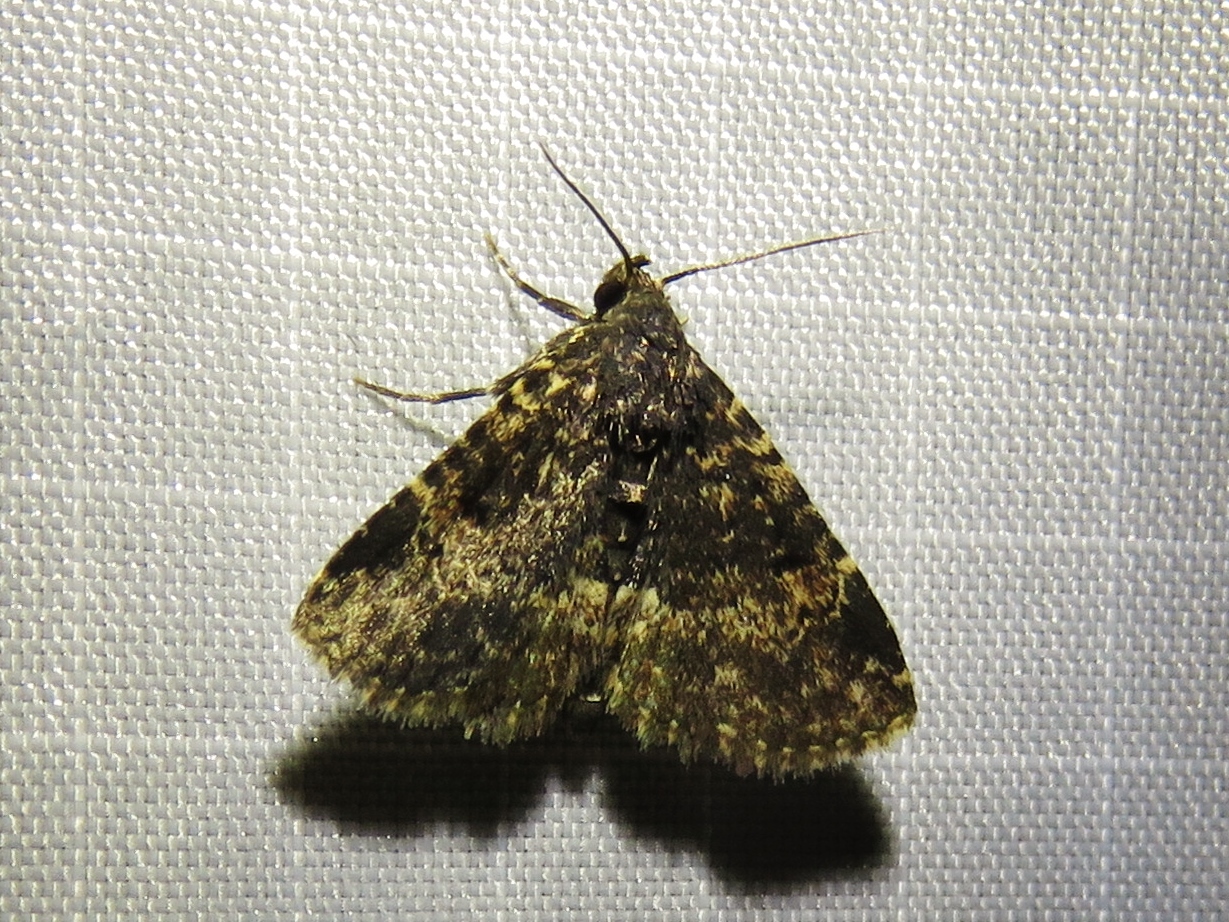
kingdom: Animalia
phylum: Arthropoda
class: Insecta
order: Lepidoptera
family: Erebidae
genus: Metalectra
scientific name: Metalectra diabolica
